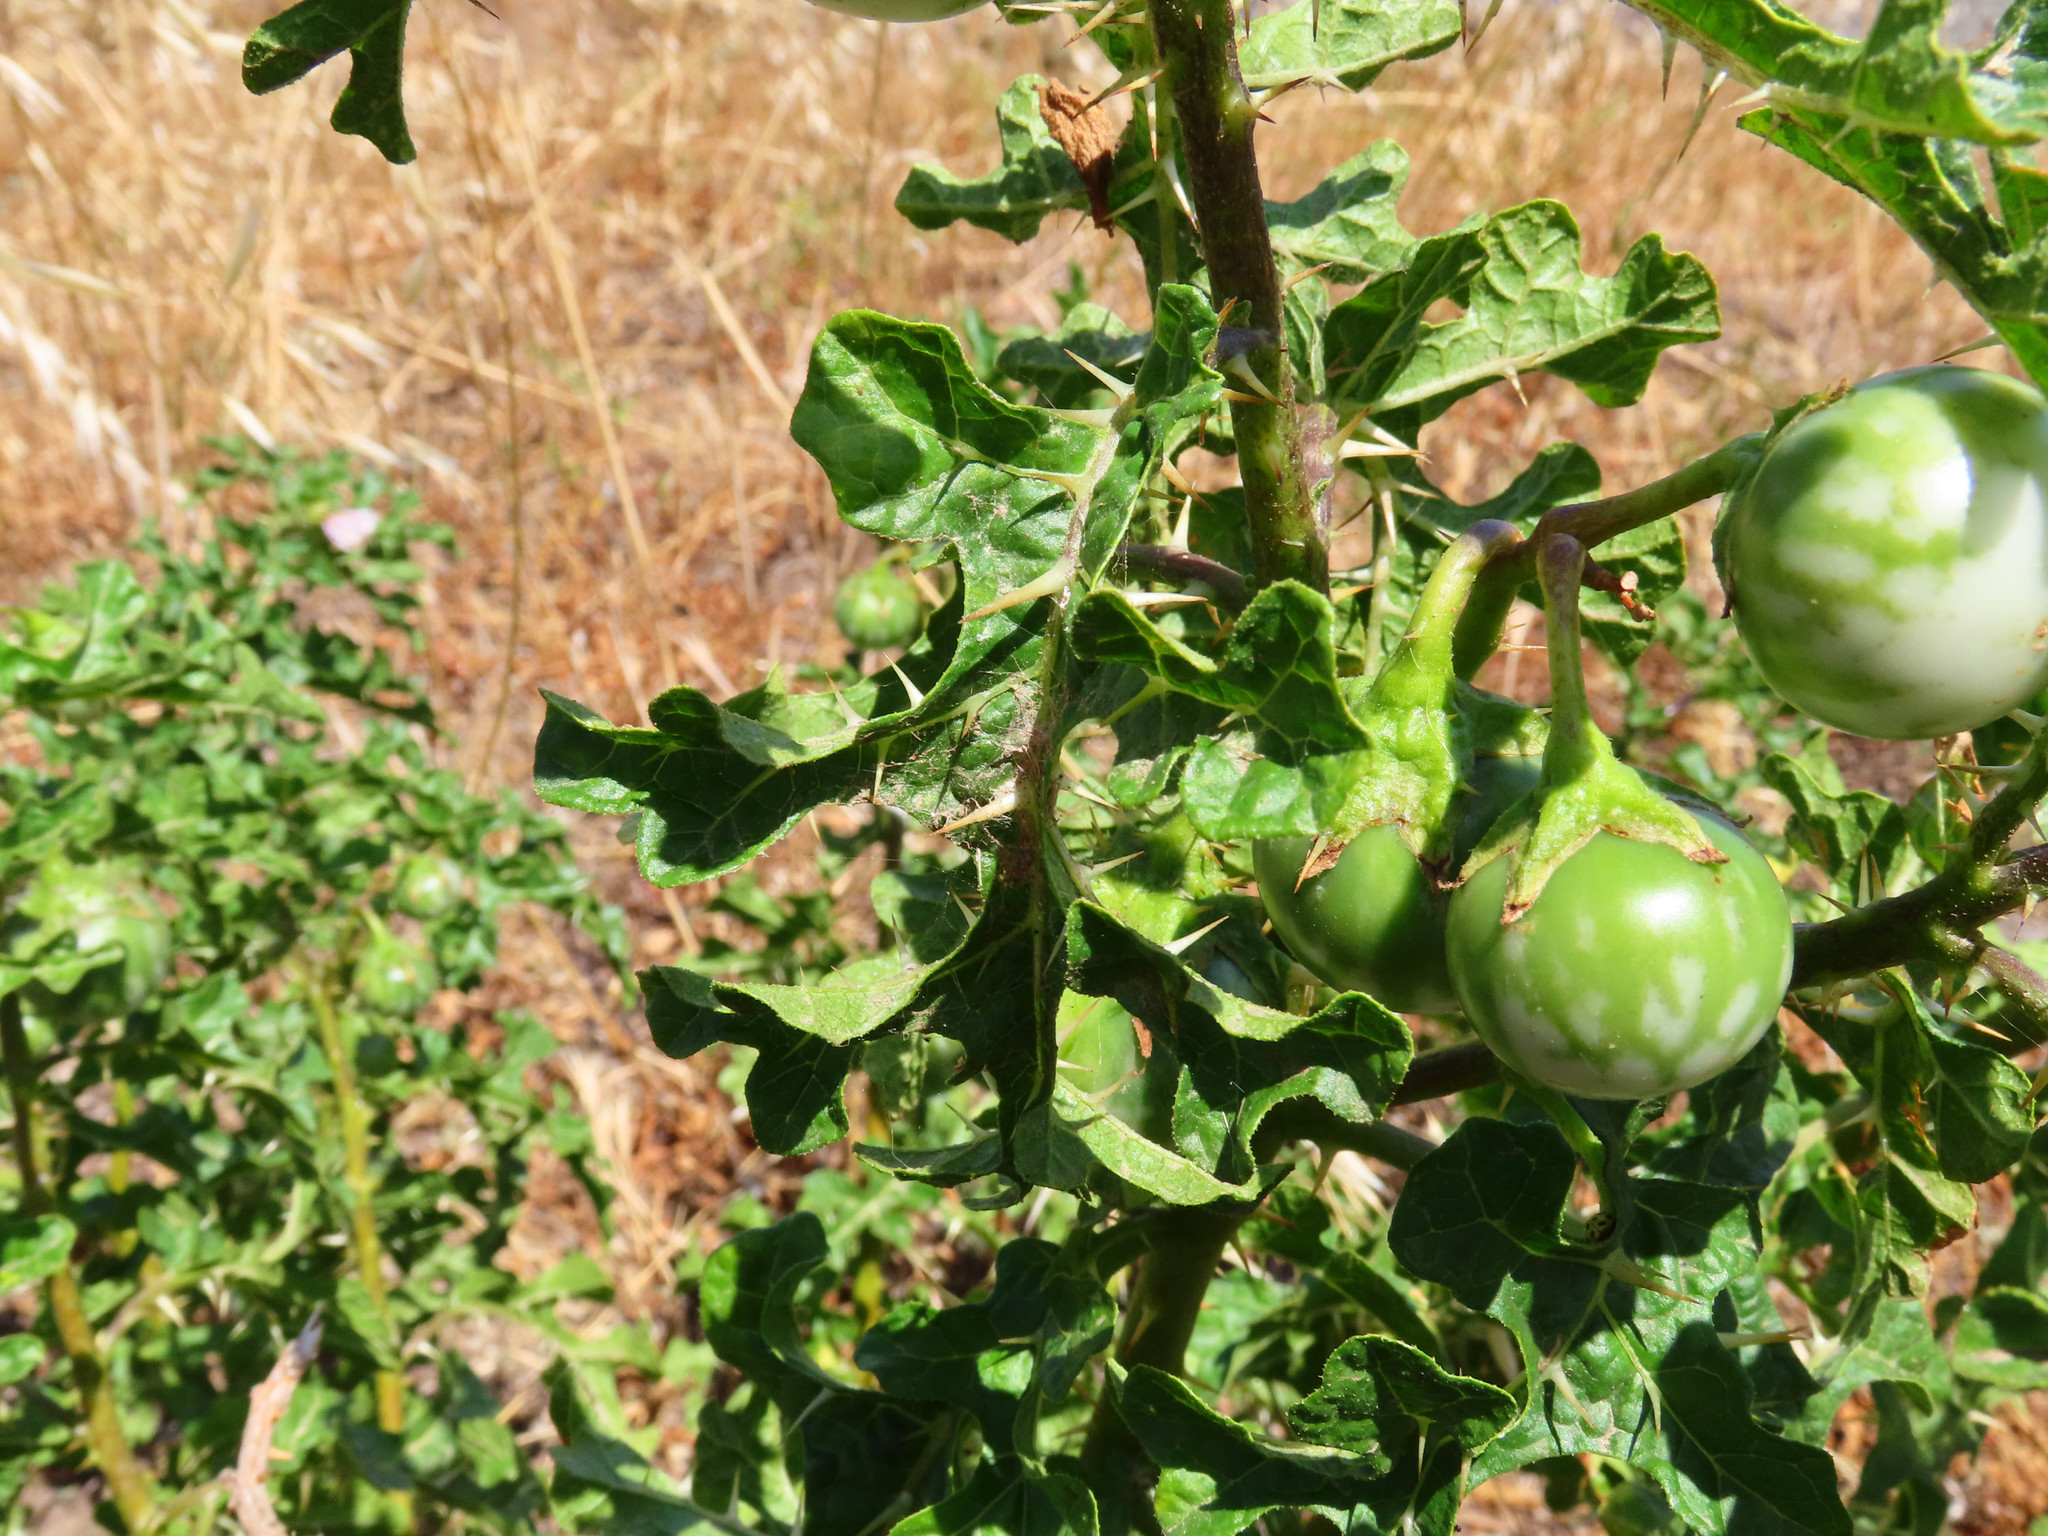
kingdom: Plantae
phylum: Tracheophyta
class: Magnoliopsida
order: Solanales
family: Solanaceae
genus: Solanum
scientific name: Solanum linnaeanum
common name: Nightshade
